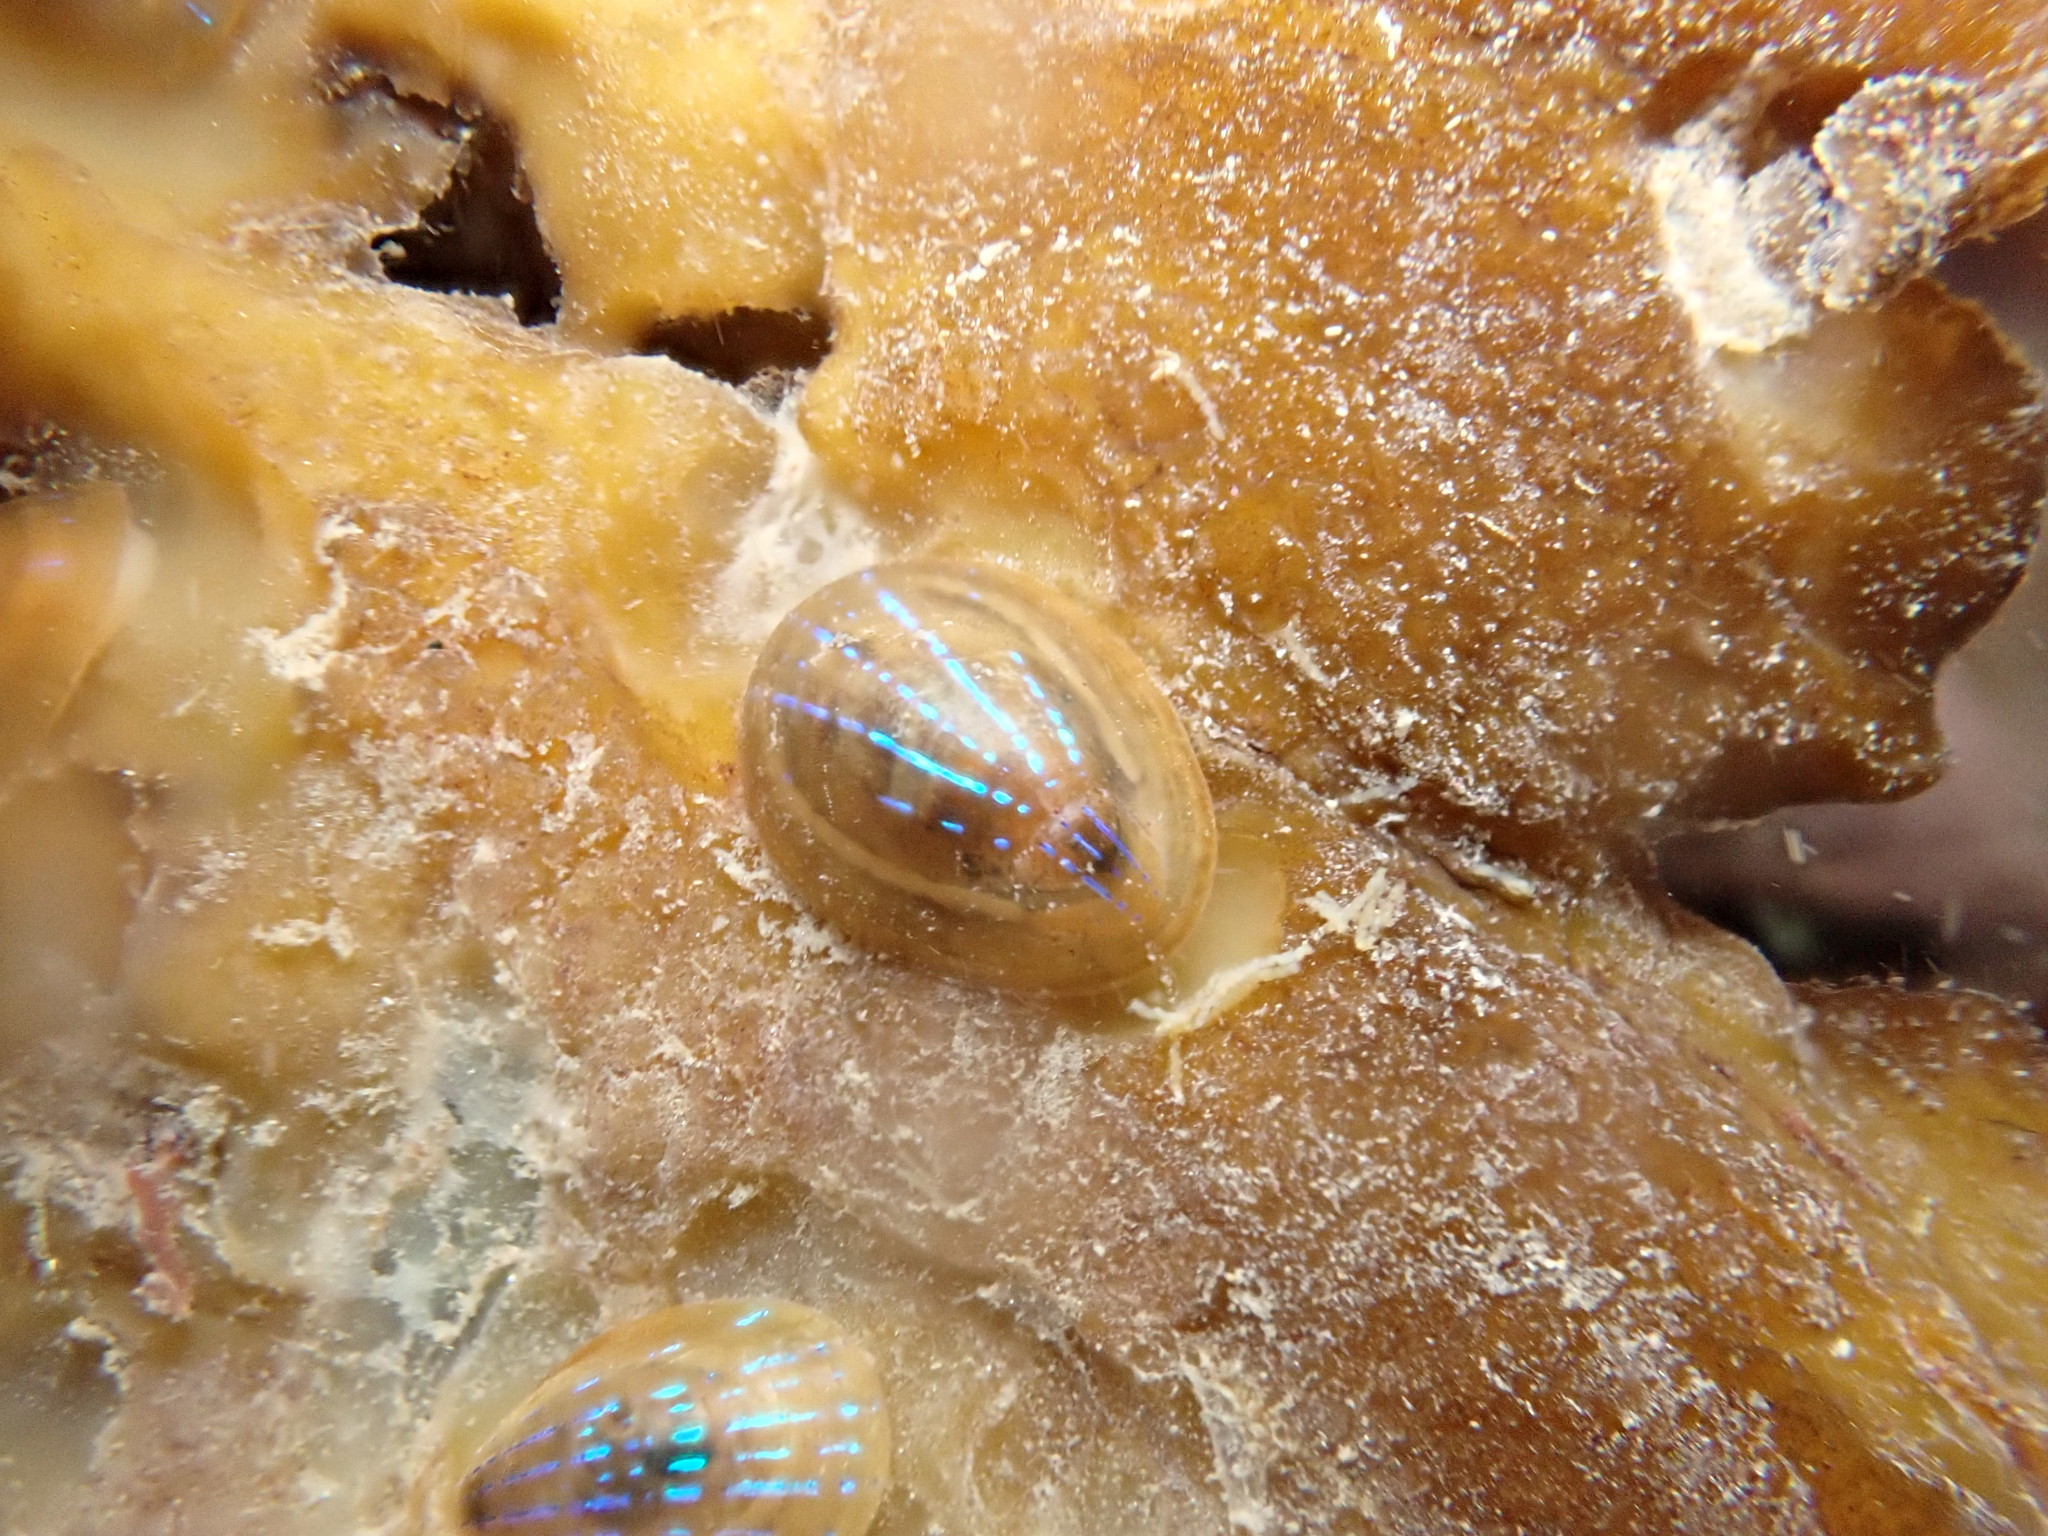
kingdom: Animalia
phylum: Mollusca
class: Gastropoda
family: Patellidae
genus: Patella
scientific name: Patella pellucida
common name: Blue-rayed limpet
